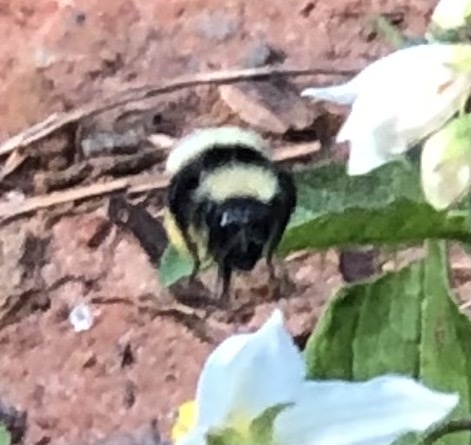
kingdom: Animalia
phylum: Arthropoda
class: Insecta
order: Hymenoptera
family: Apidae
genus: Bombus
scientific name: Bombus pensylvanicus
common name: Bumble bee
